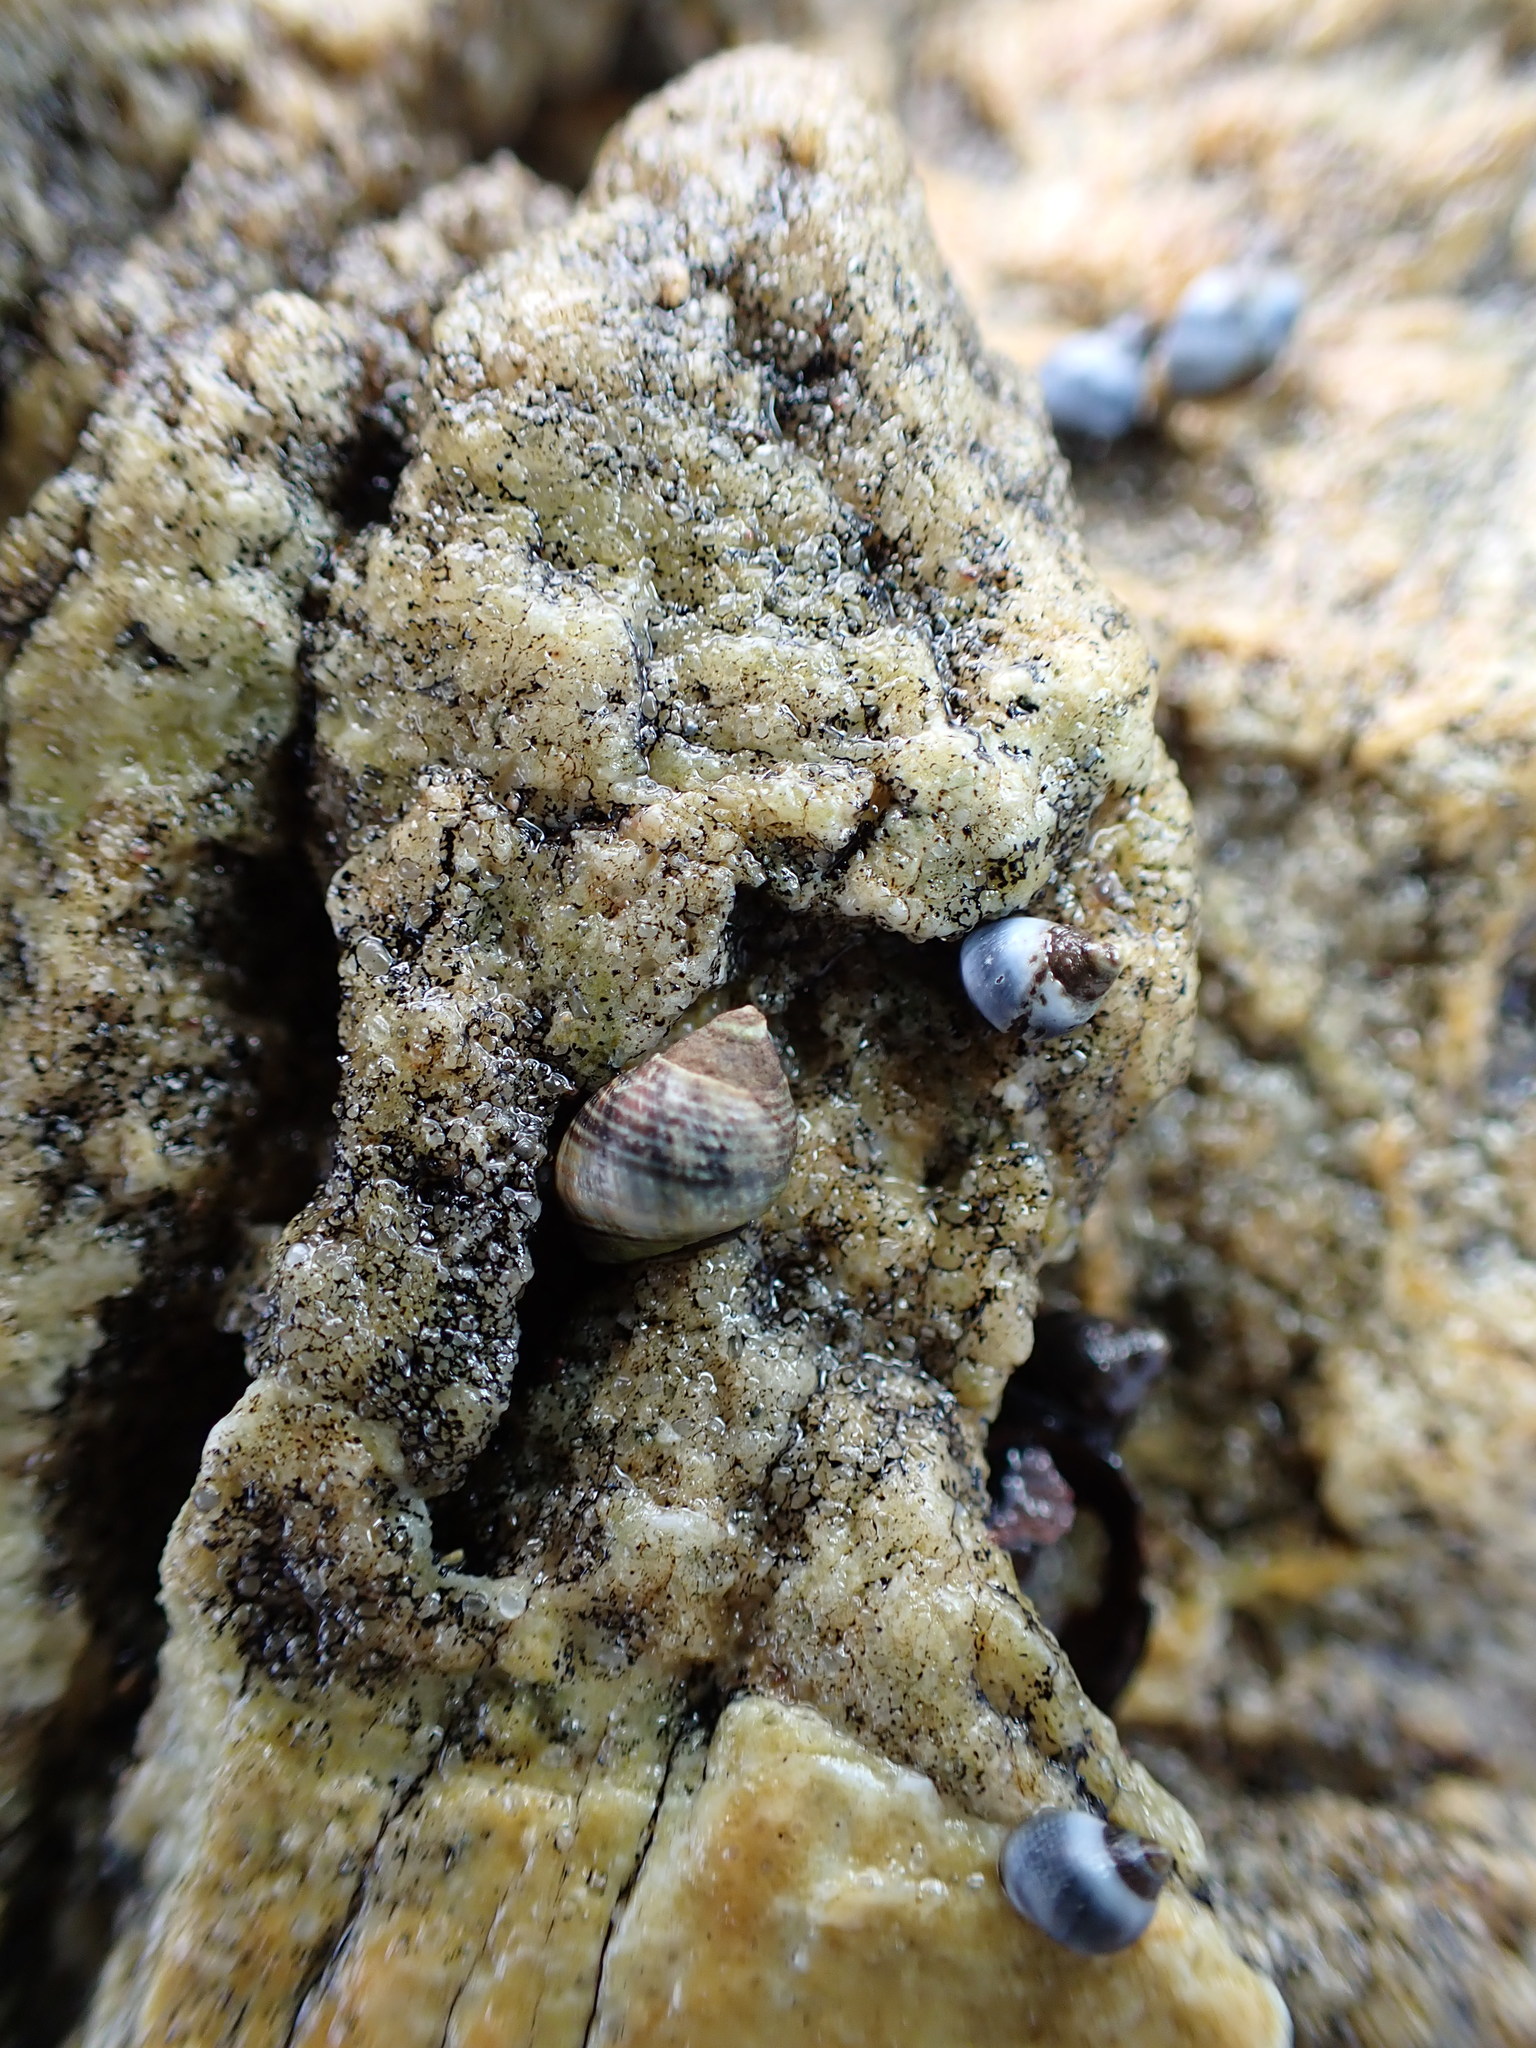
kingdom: Animalia
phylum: Mollusca
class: Gastropoda
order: Littorinimorpha
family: Littorinidae
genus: Austrolittorina
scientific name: Austrolittorina cincta
